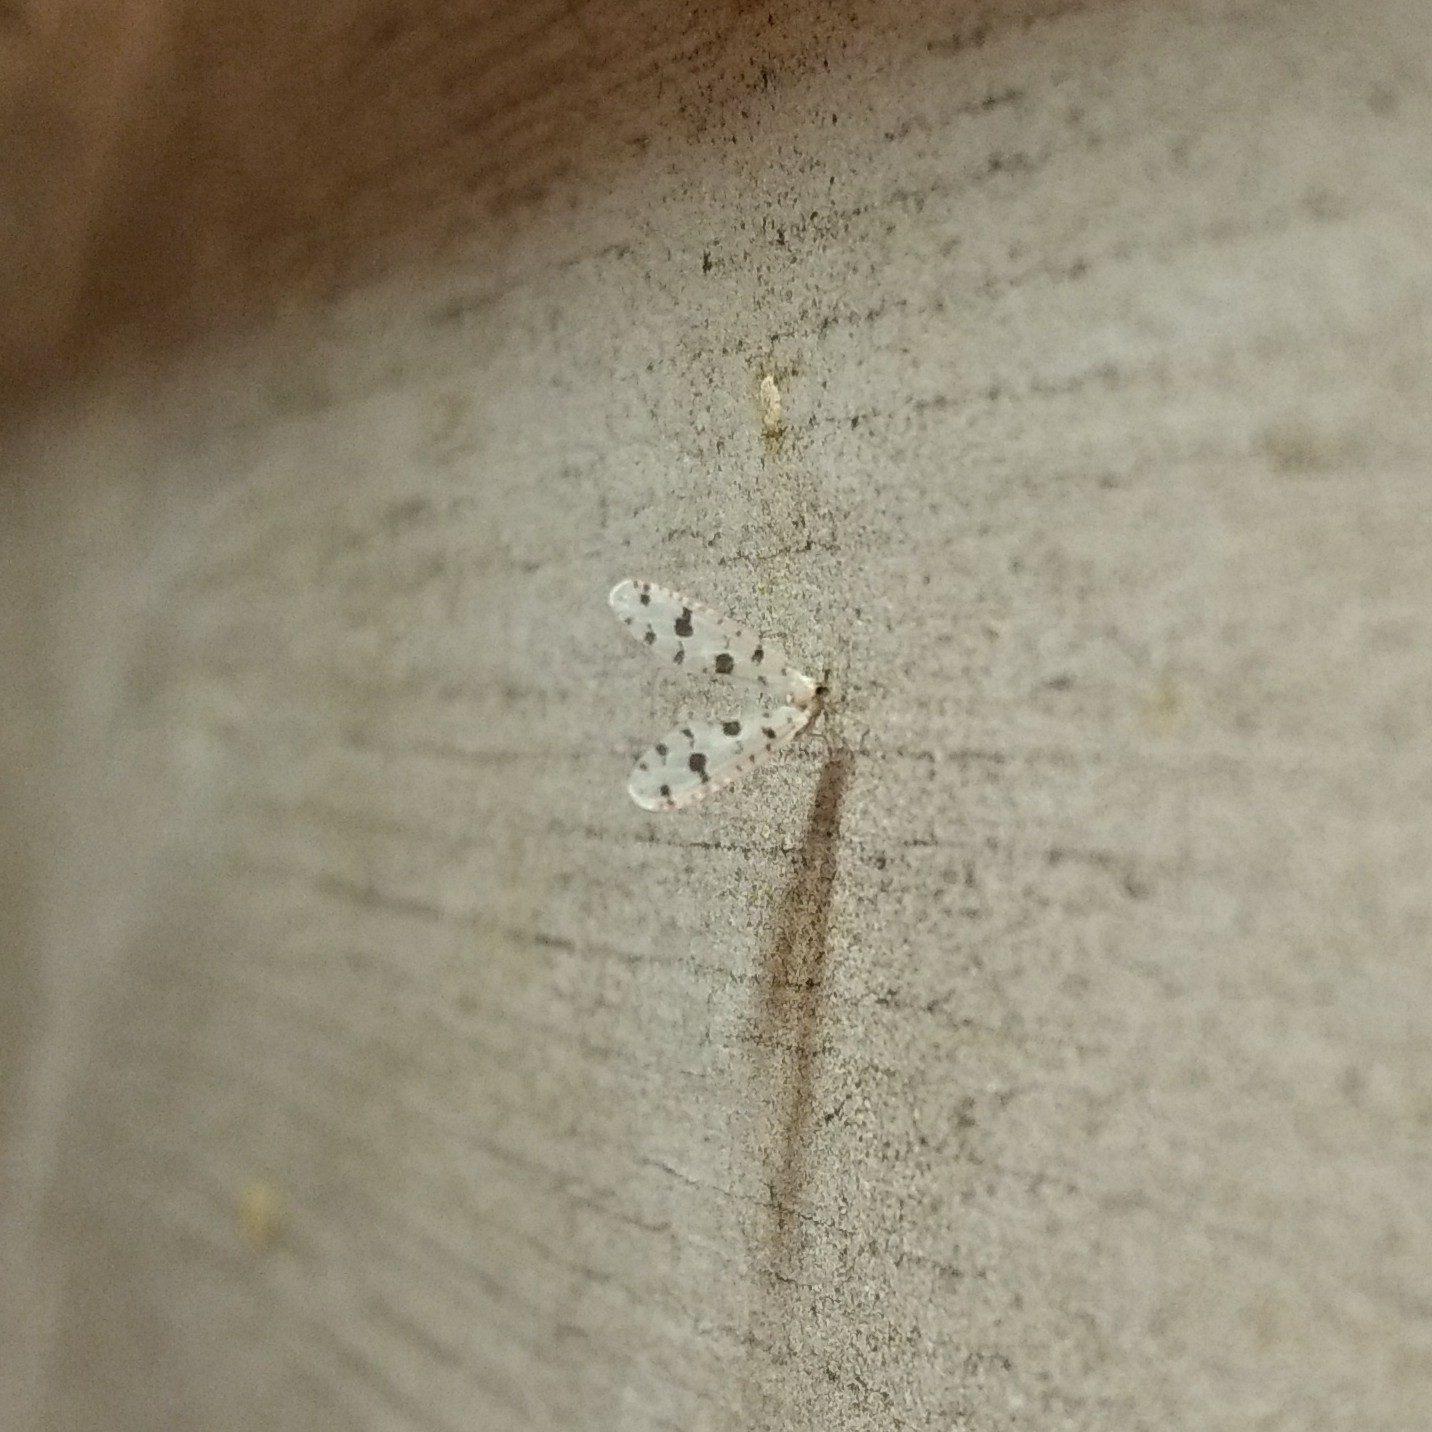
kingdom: Animalia
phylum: Arthropoda
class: Insecta
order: Hemiptera
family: Derbidae
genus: Sikaiana
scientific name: Sikaiana harti
